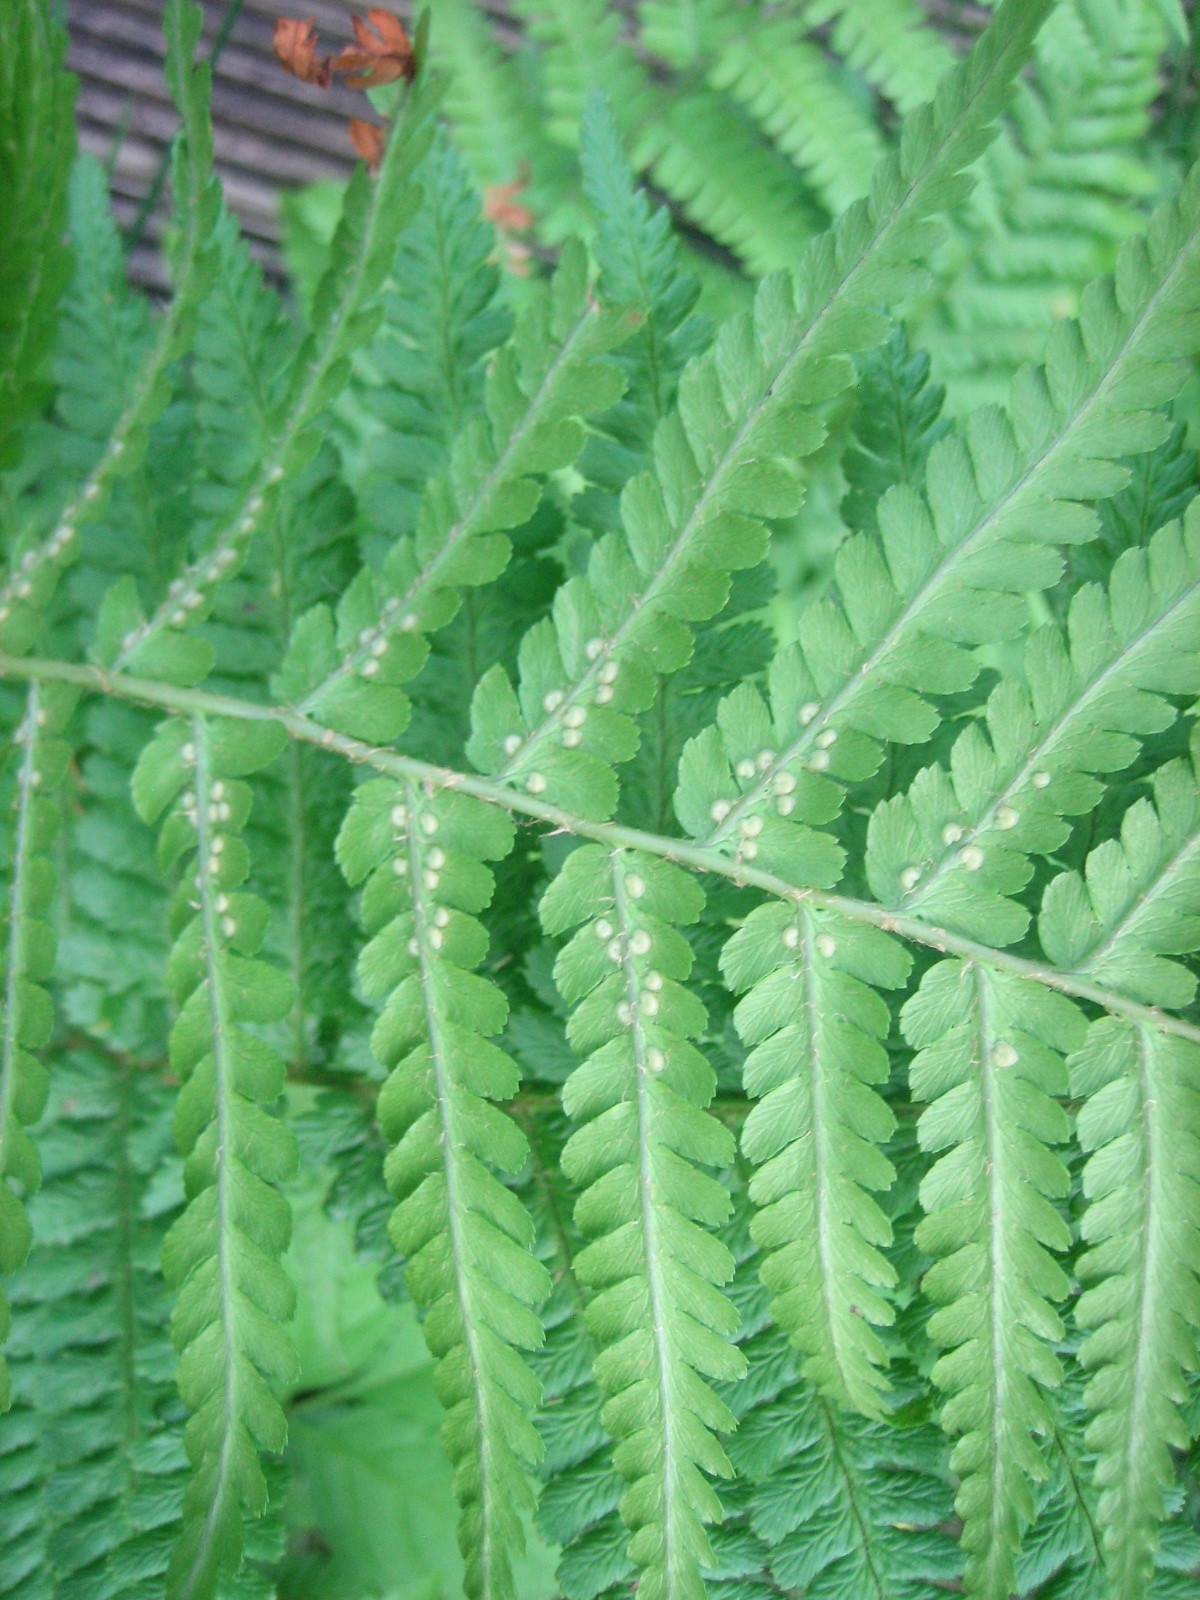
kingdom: Plantae
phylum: Tracheophyta
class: Polypodiopsida
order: Polypodiales
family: Dryopteridaceae
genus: Dryopteris
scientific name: Dryopteris filix-mas
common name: Male fern
